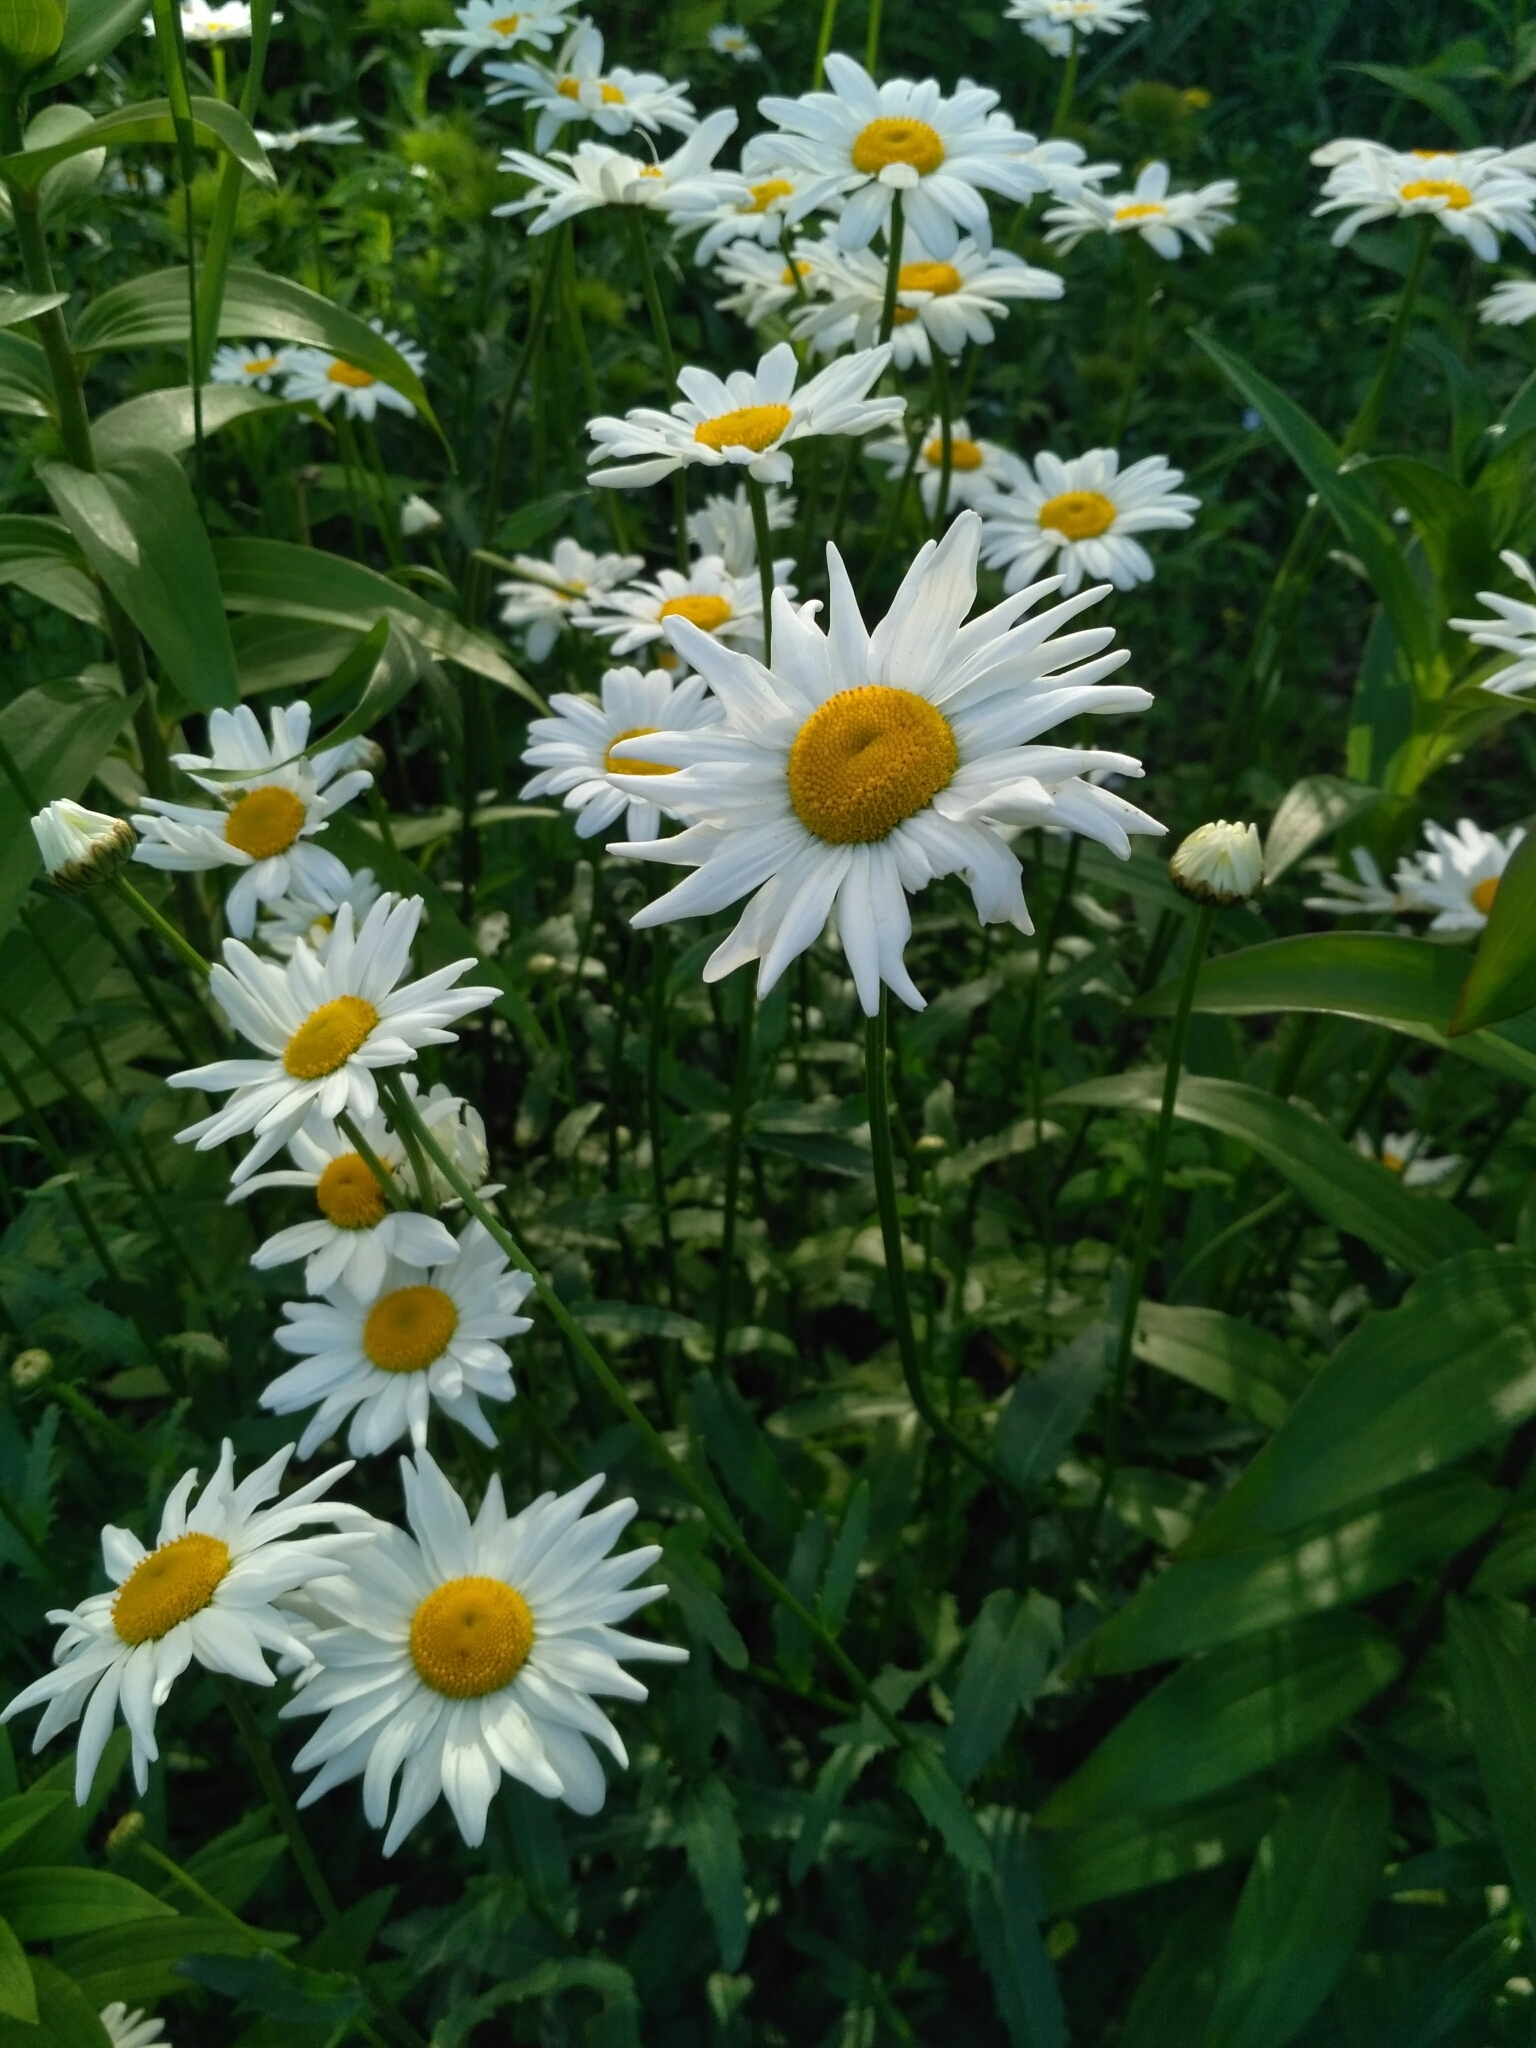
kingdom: Plantae
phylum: Tracheophyta
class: Magnoliopsida
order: Asterales
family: Asteraceae
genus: Leucanthemum
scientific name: Leucanthemum vulgare
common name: Oxeye daisy
